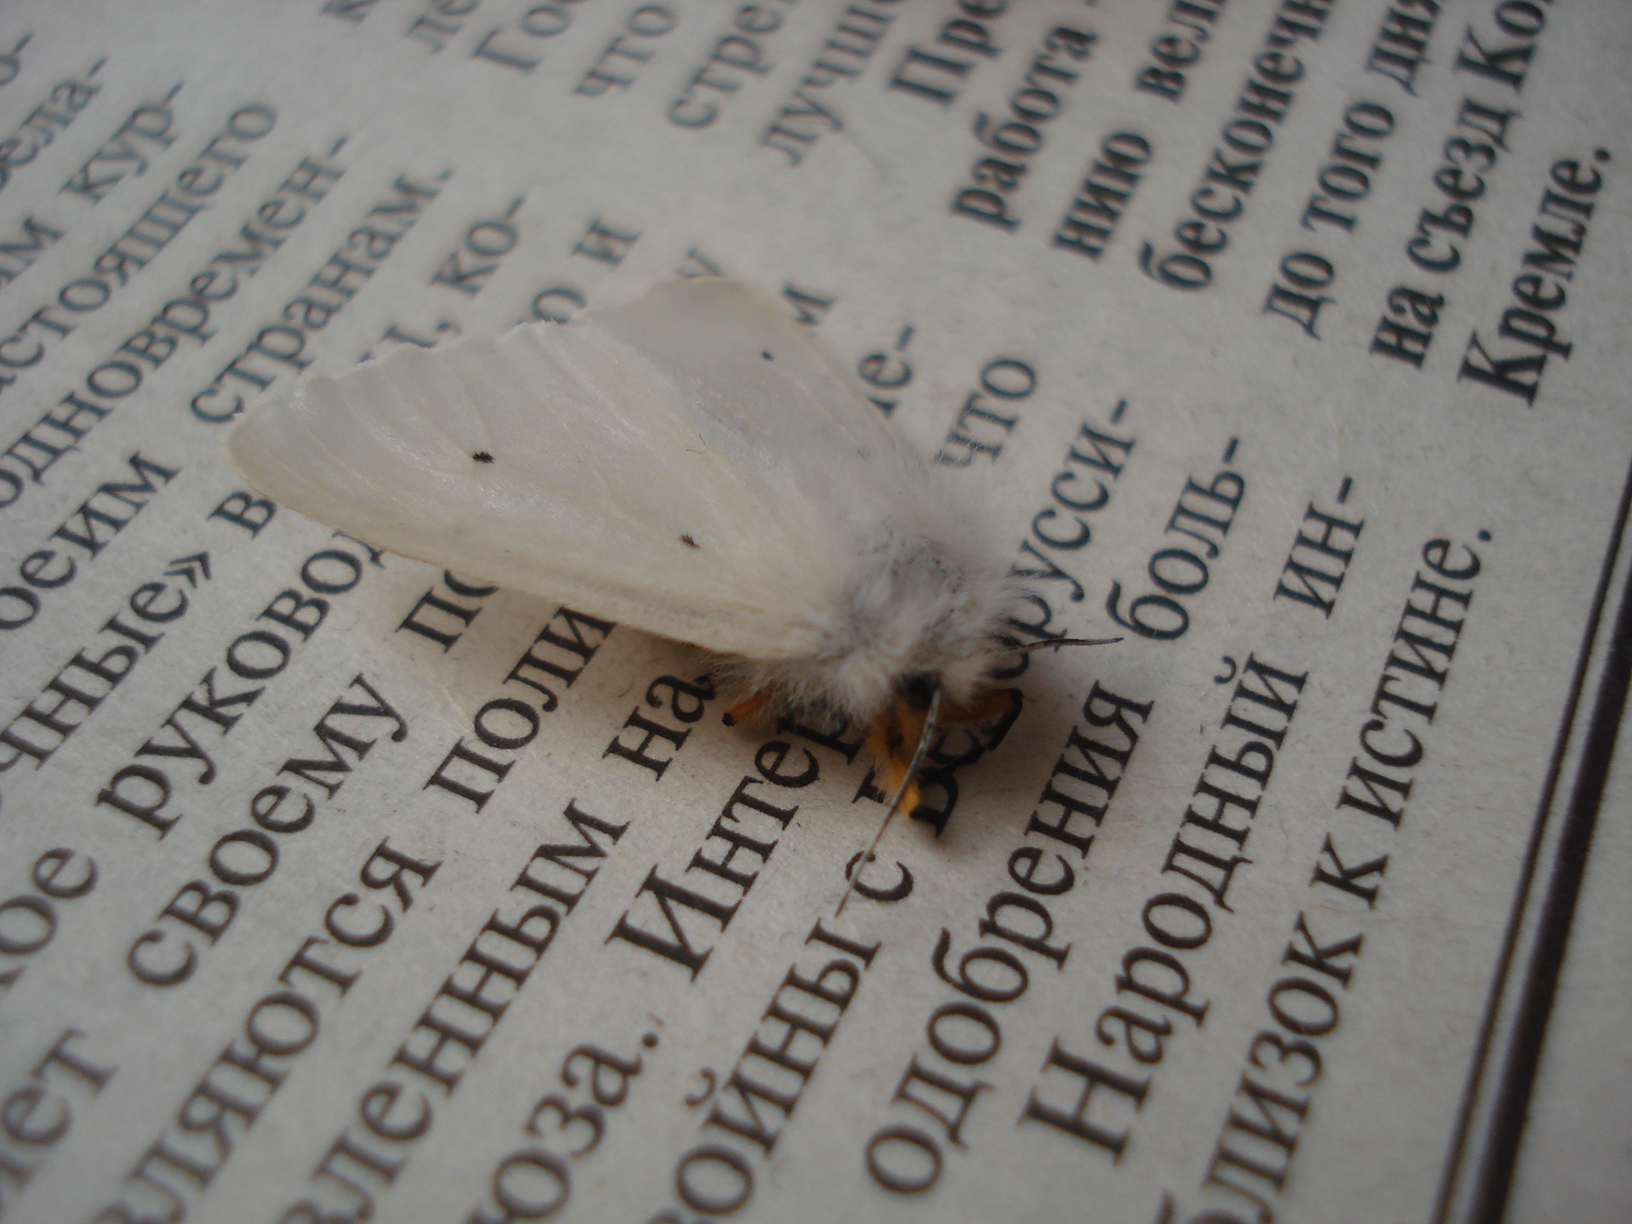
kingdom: Animalia
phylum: Arthropoda
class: Insecta
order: Lepidoptera
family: Erebidae
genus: Diaphora
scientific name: Diaphora mendica
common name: Muslin moth
